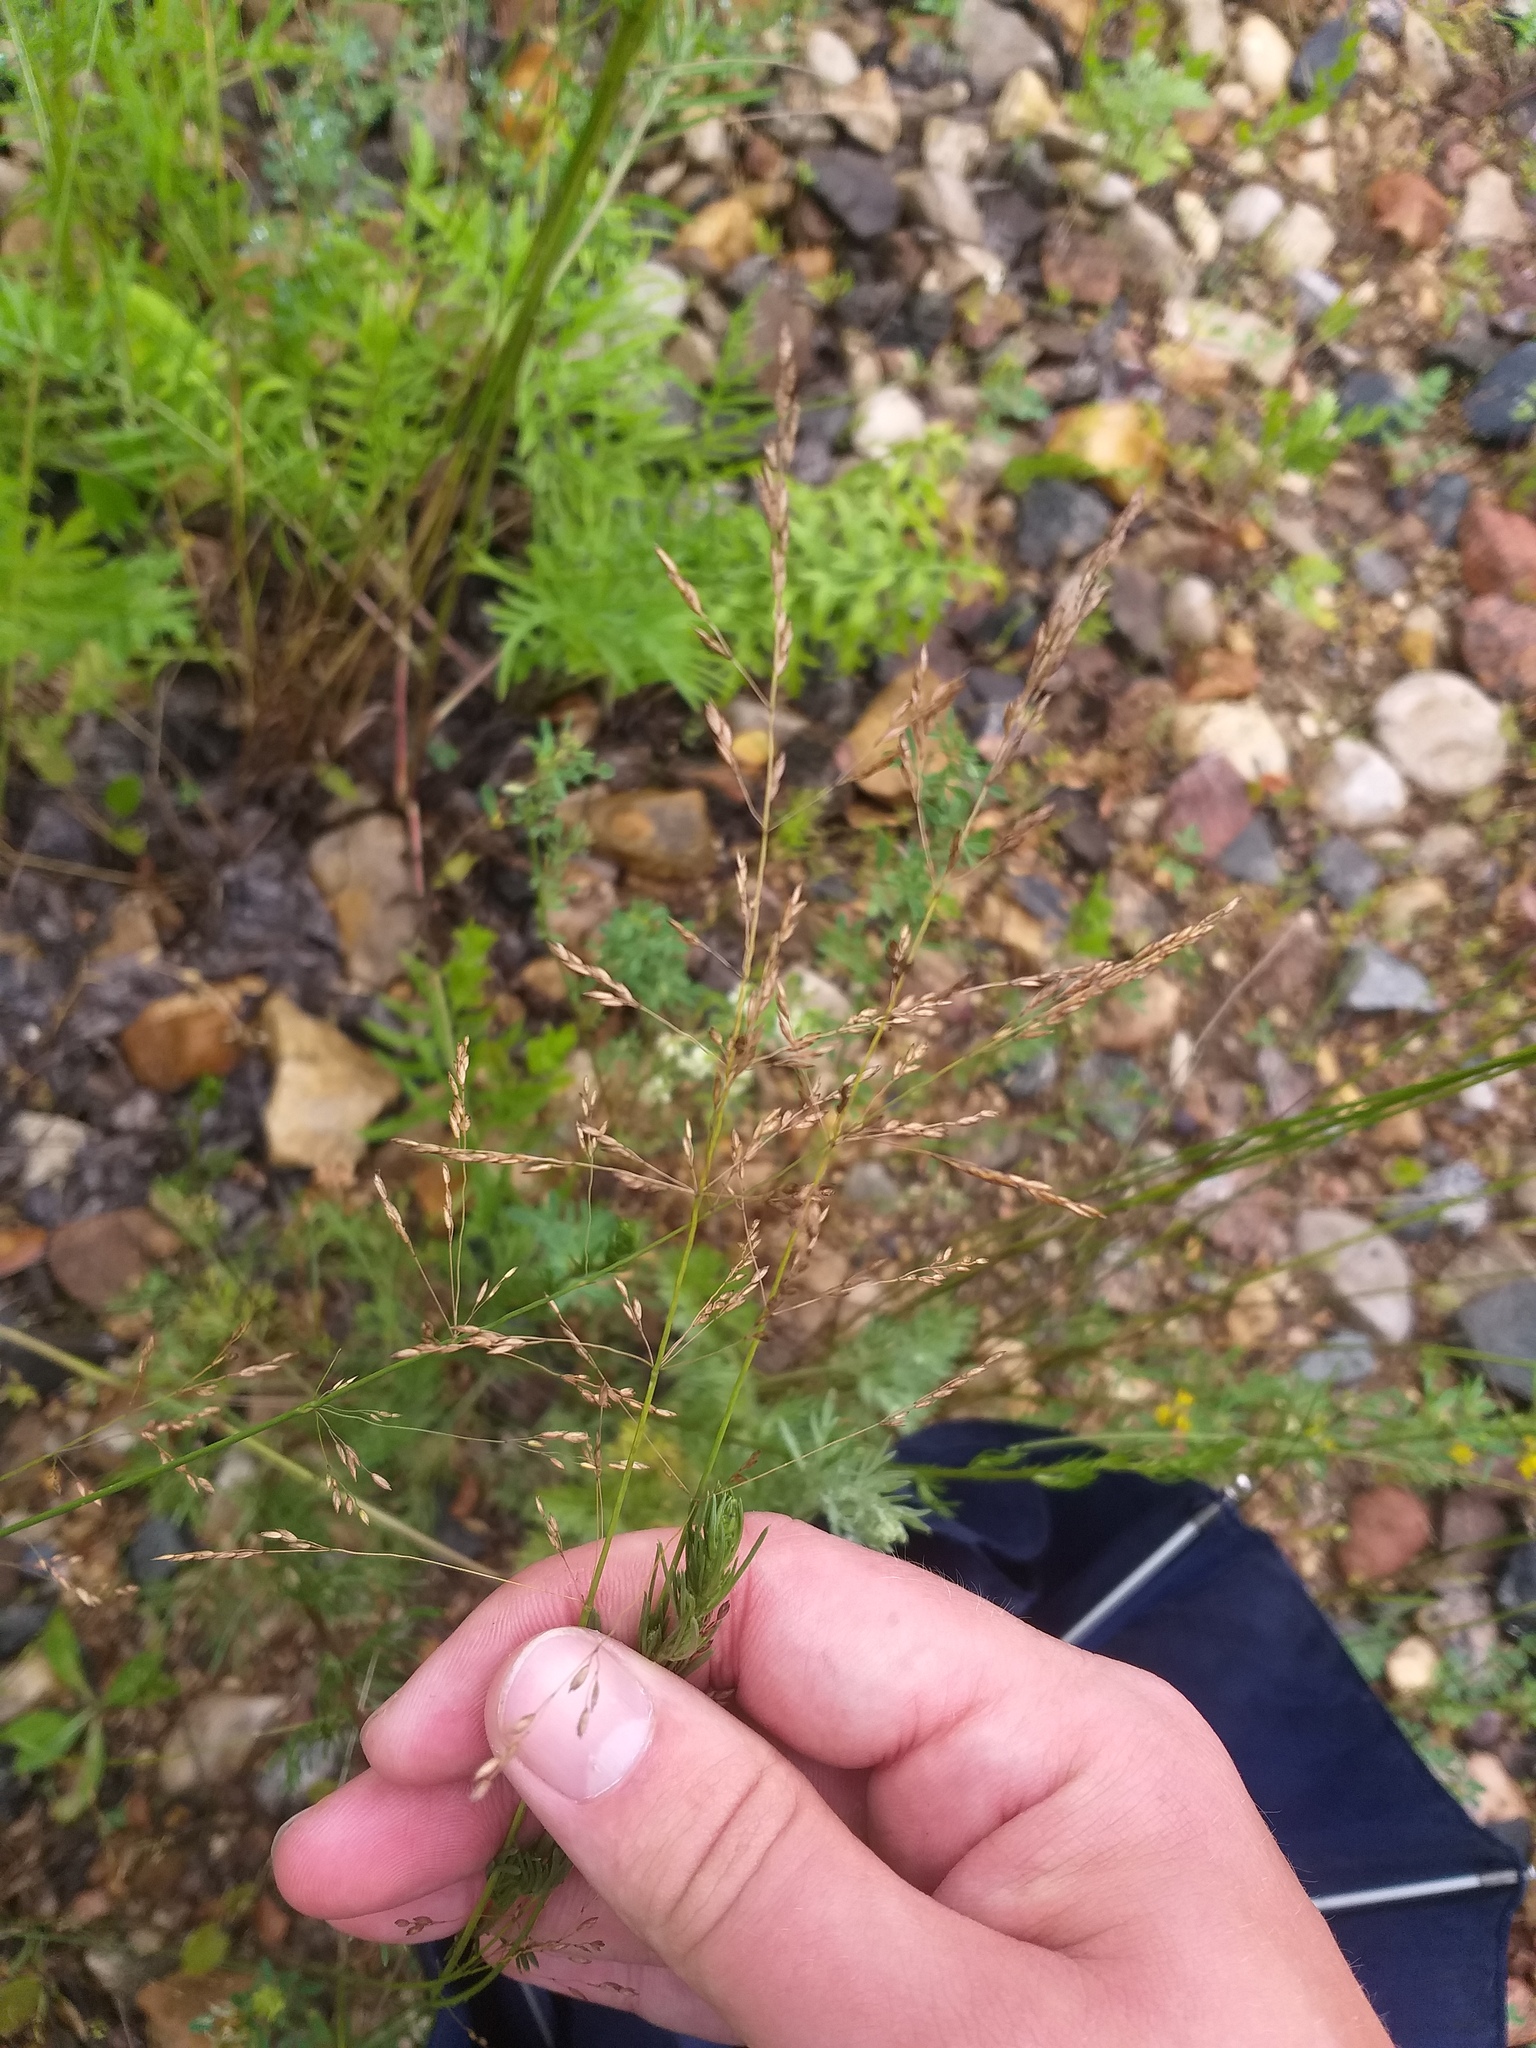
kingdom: Plantae
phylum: Tracheophyta
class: Liliopsida
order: Poales
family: Poaceae
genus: Poa
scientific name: Poa palustris
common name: Swamp meadow-grass
